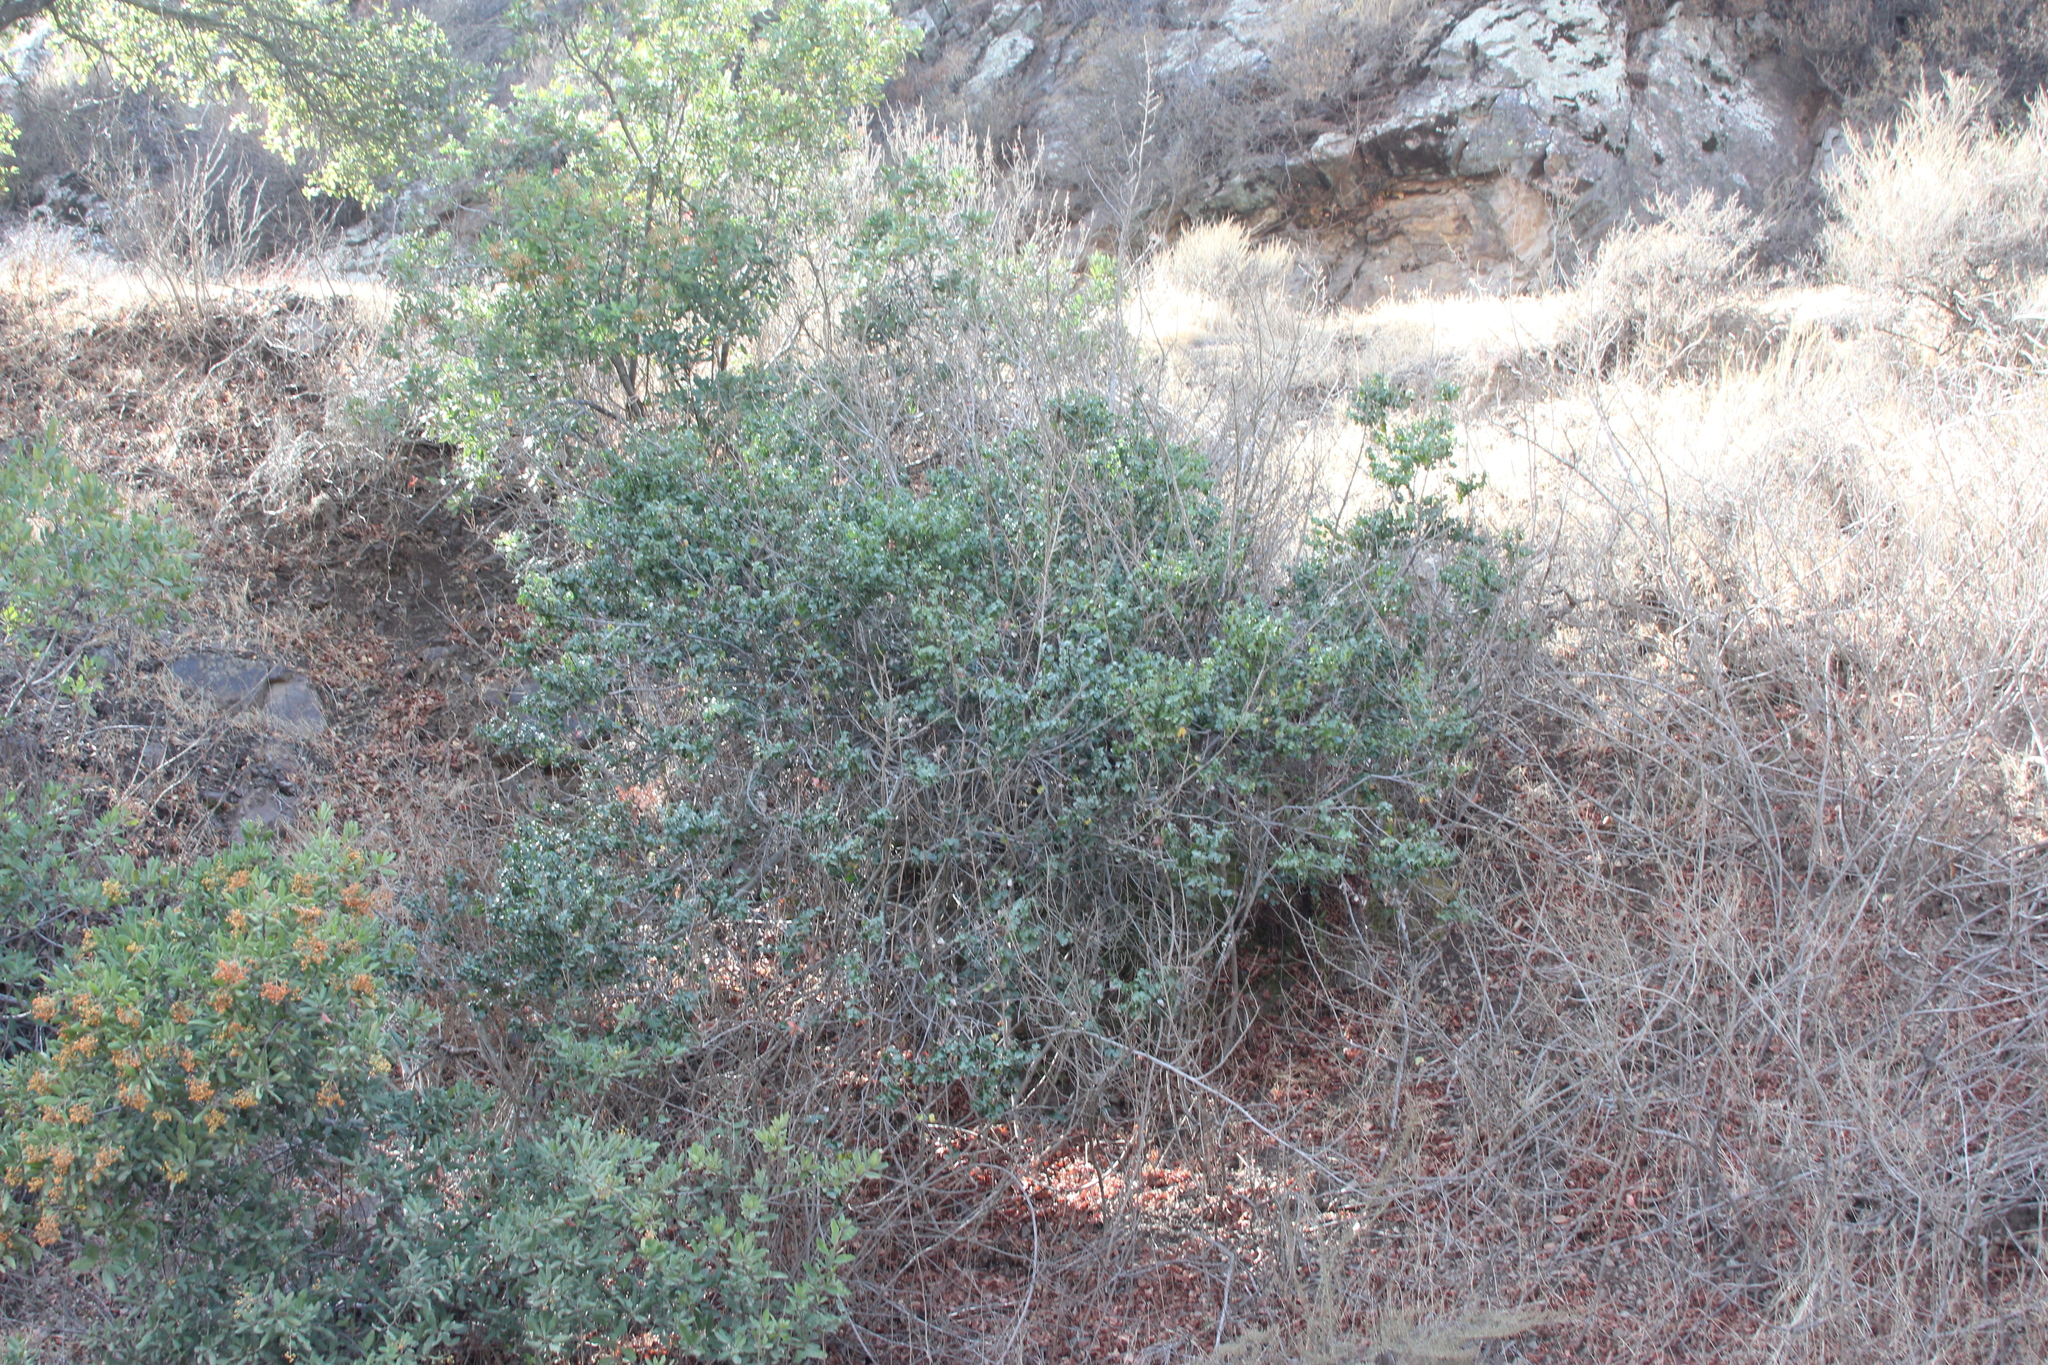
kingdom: Plantae
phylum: Tracheophyta
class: Magnoliopsida
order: Rosales
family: Rosaceae
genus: Prunus
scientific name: Prunus ilicifolia
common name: Hollyleaf cherry
